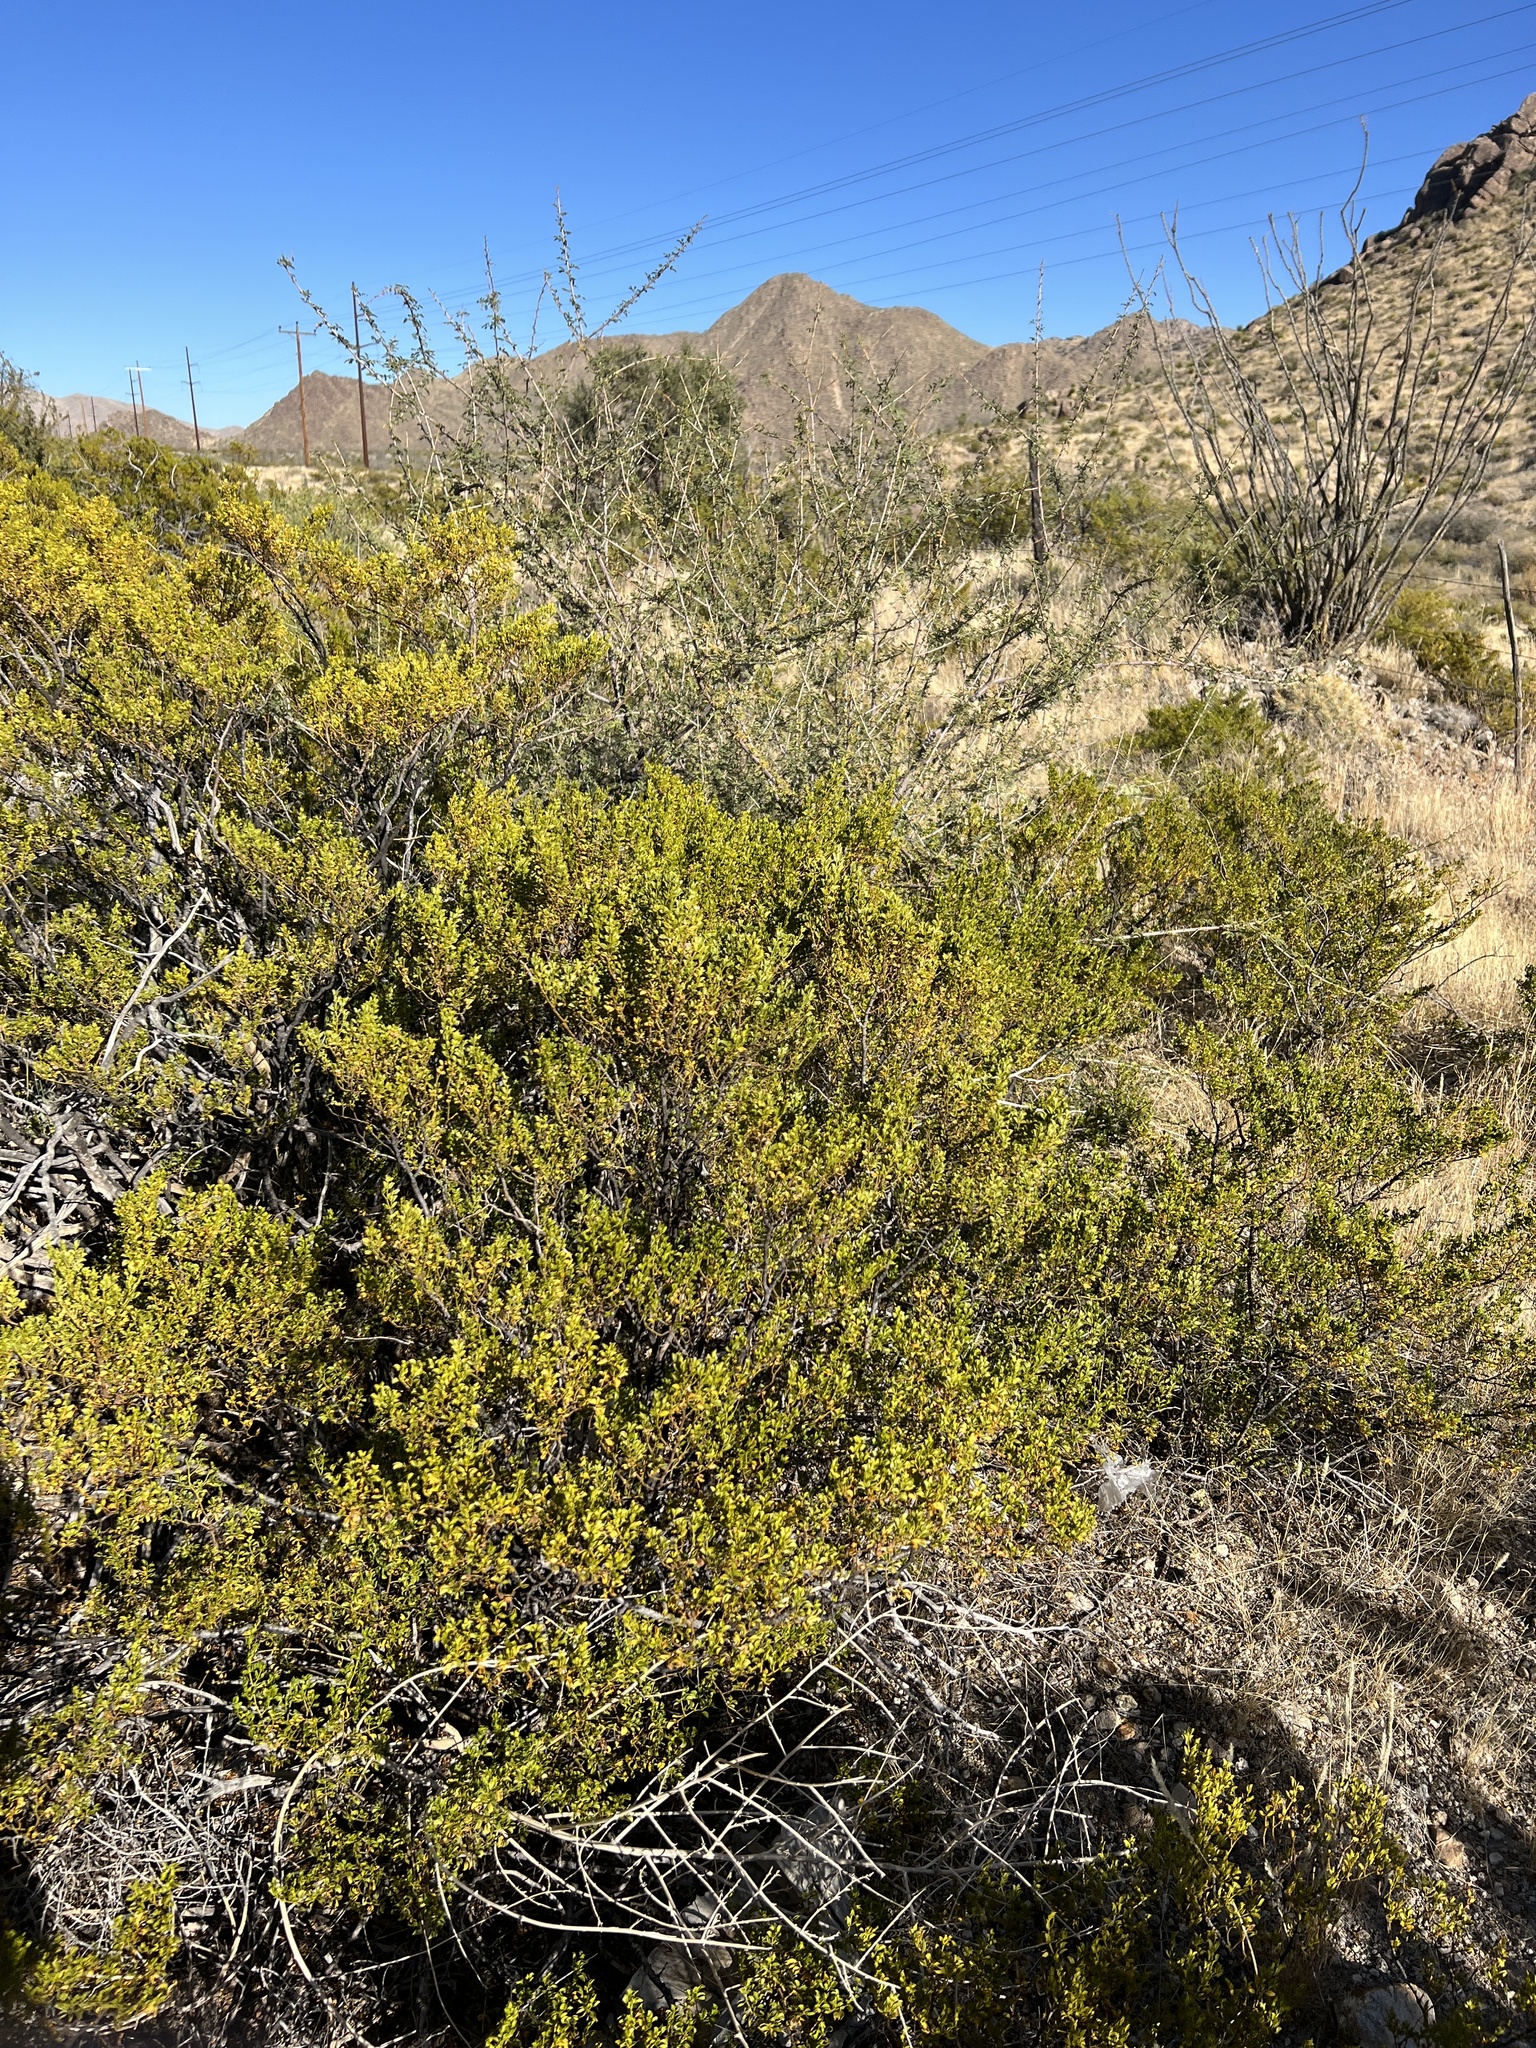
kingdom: Plantae
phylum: Tracheophyta
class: Magnoliopsida
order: Zygophyllales
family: Zygophyllaceae
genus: Larrea
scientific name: Larrea tridentata
